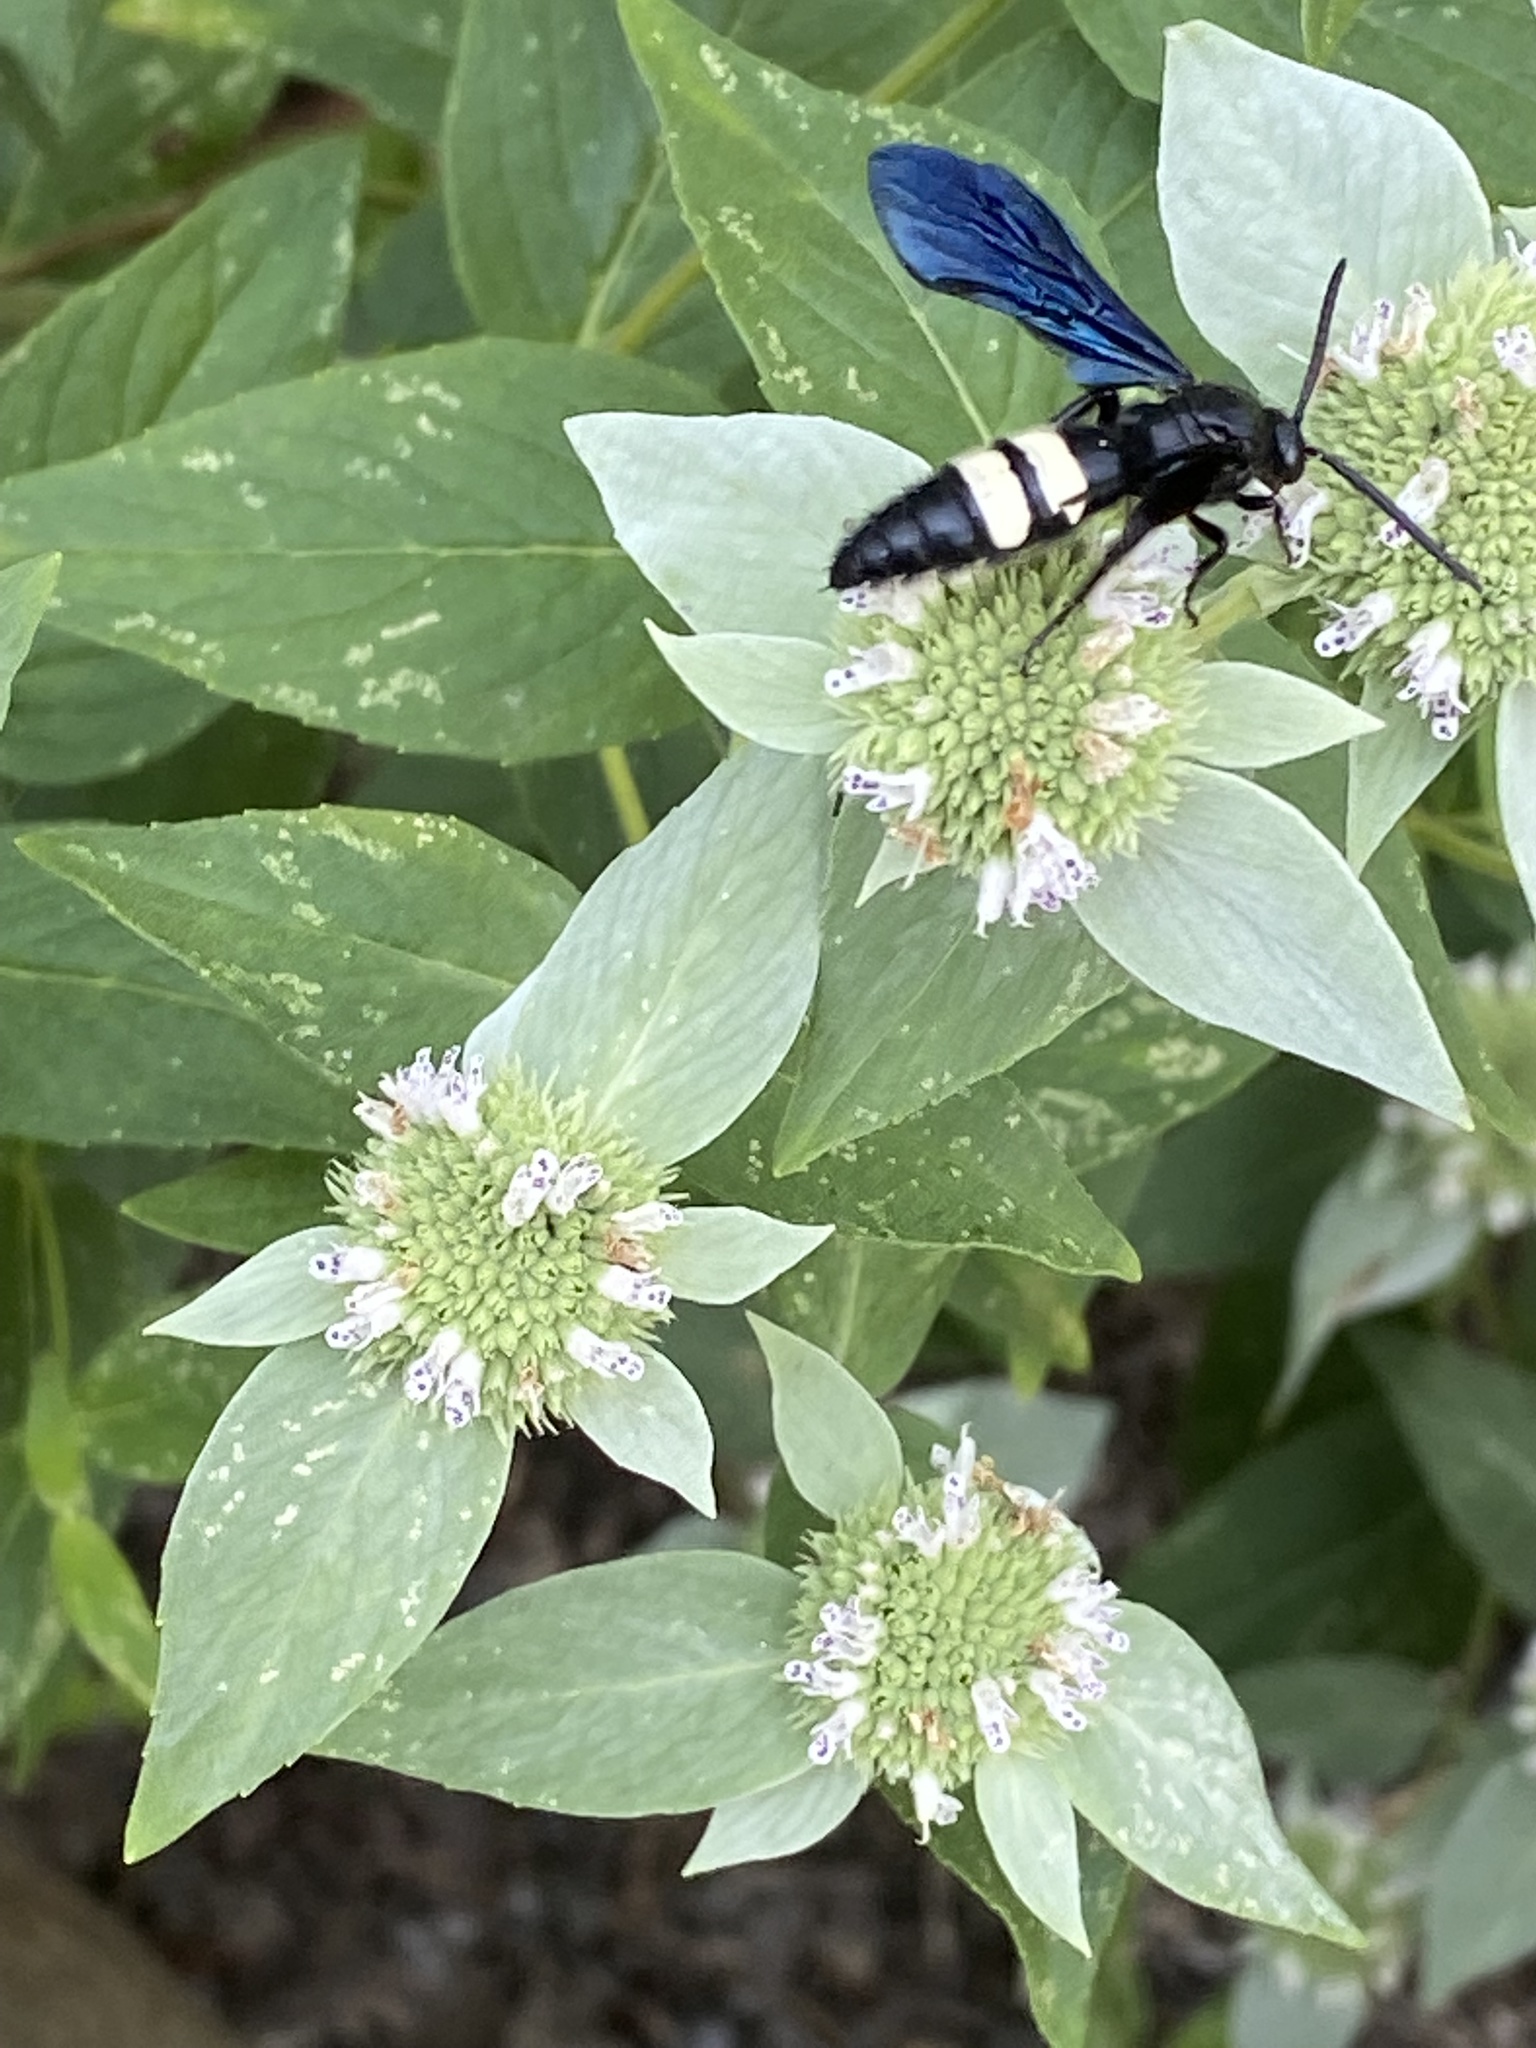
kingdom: Animalia
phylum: Arthropoda
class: Insecta
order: Hymenoptera
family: Scoliidae
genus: Scolia
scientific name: Scolia bicincta
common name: Double-banded scoliid wasp
